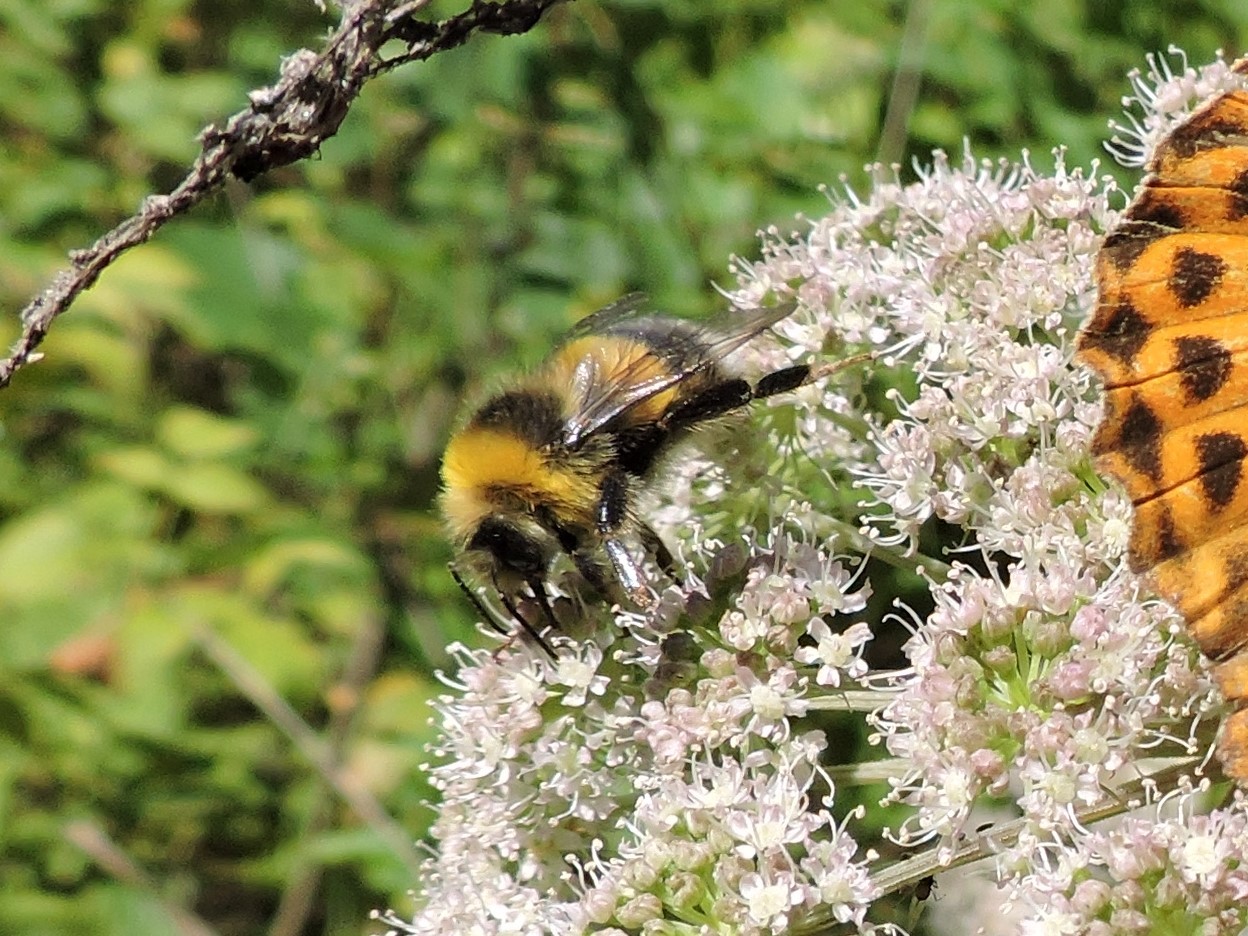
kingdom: Animalia
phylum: Arthropoda
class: Insecta
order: Hymenoptera
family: Apidae
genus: Bombus
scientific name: Bombus lucorum
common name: White-tailed bumblebee
